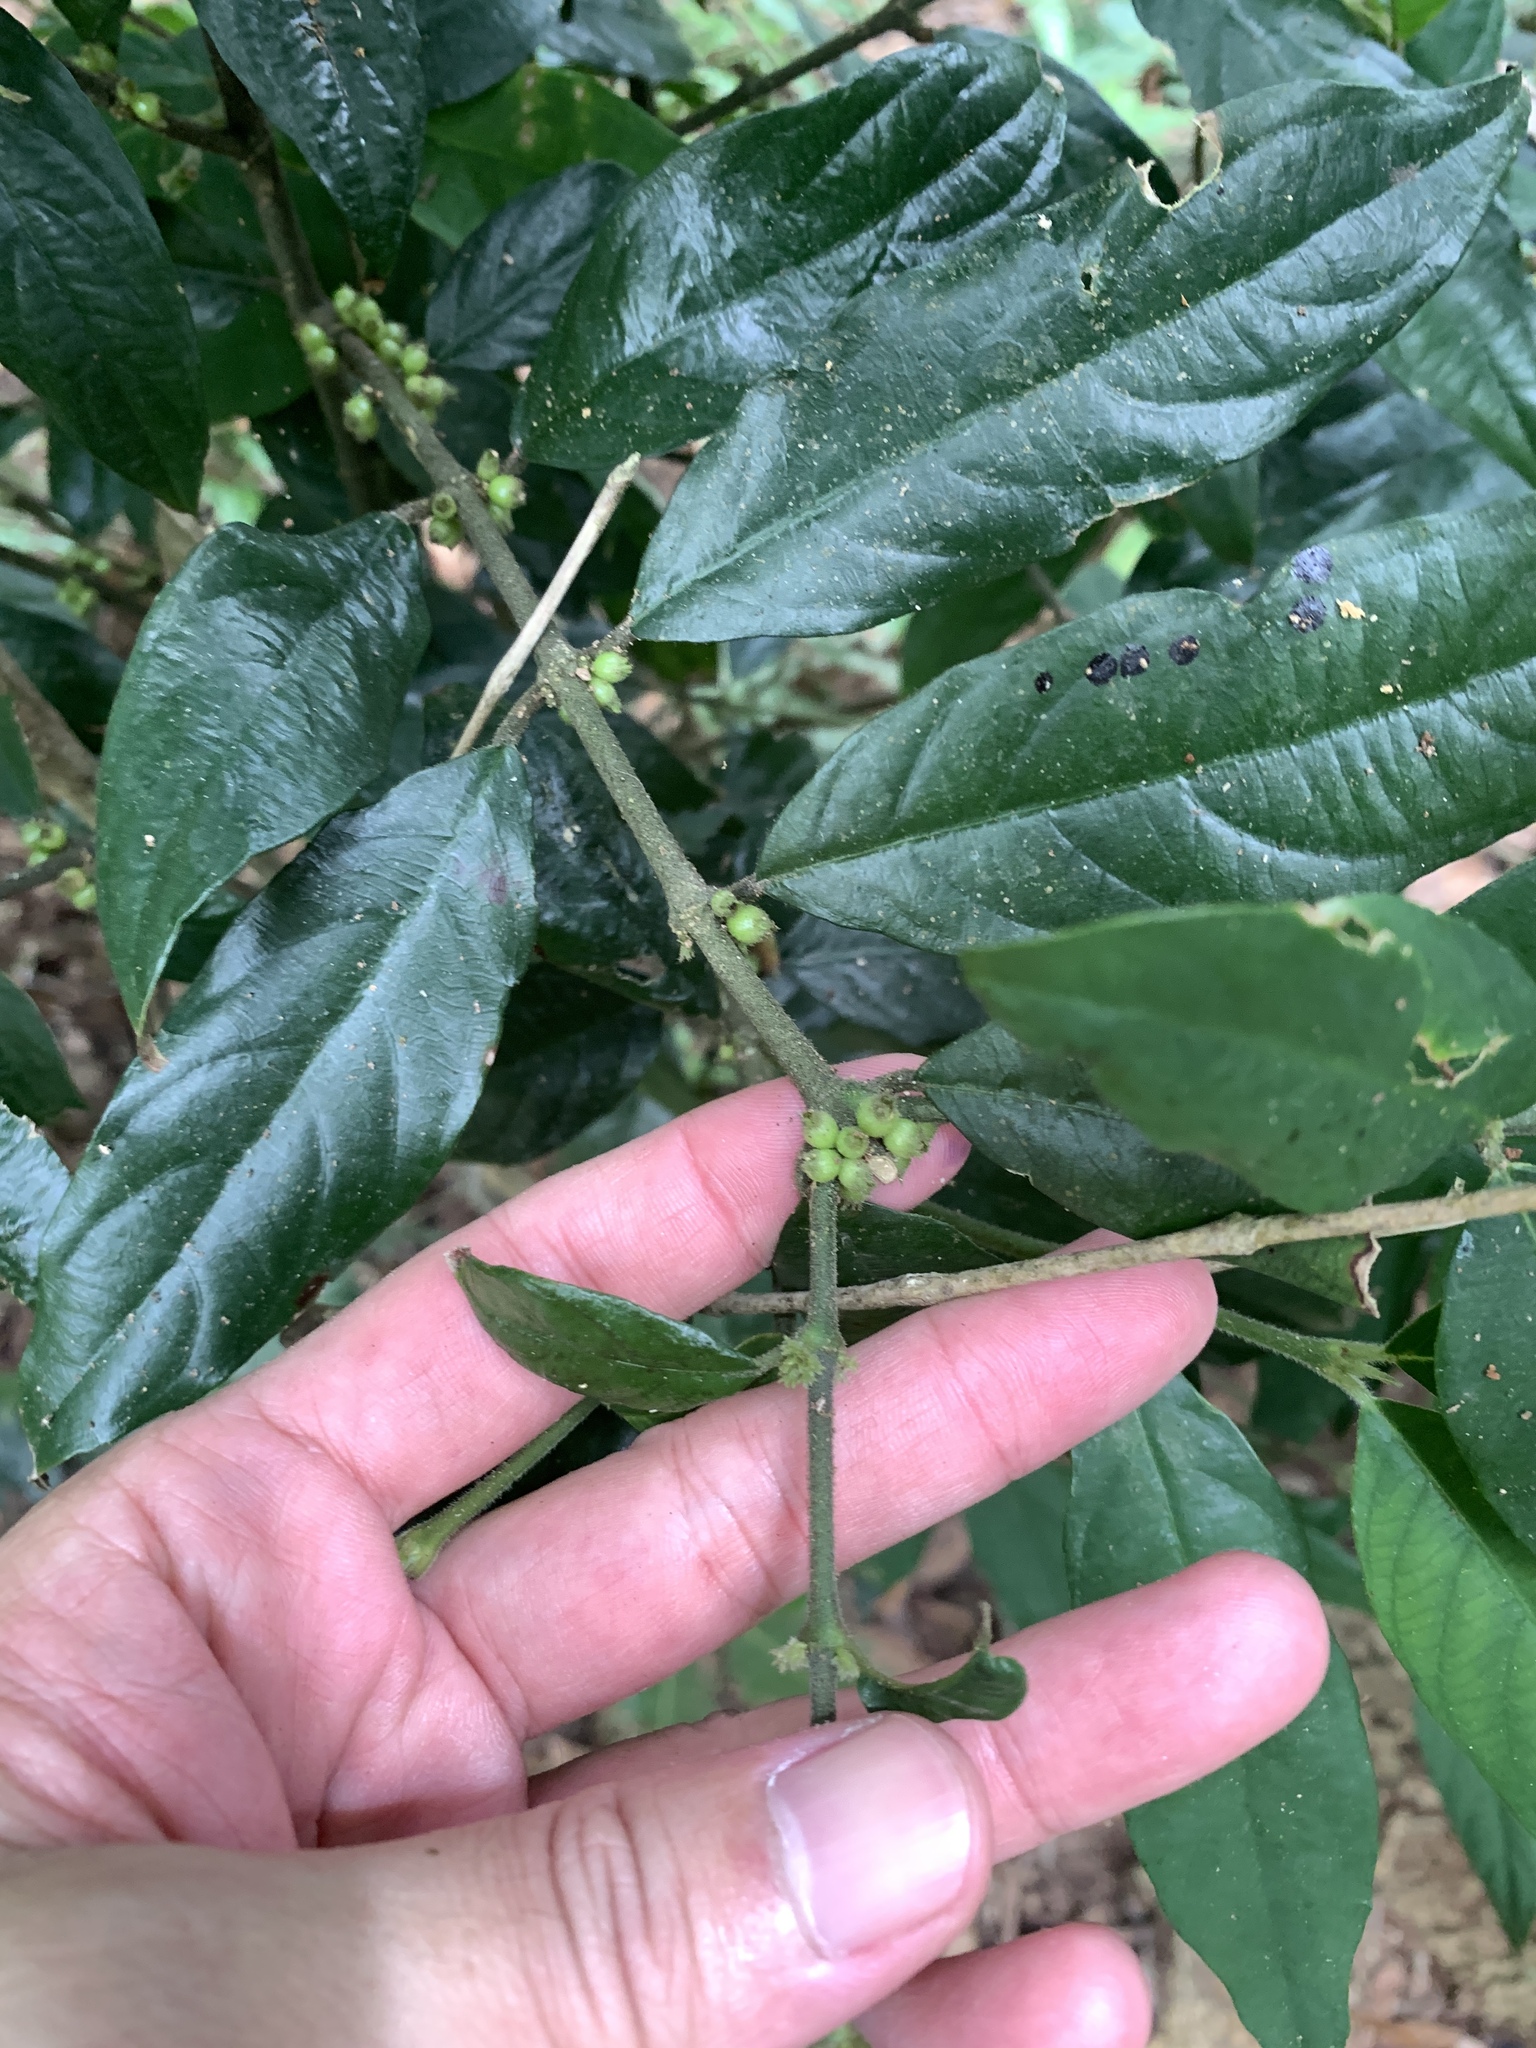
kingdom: Plantae
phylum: Tracheophyta
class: Magnoliopsida
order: Gentianales
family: Rubiaceae
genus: Lasianthus
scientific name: Lasianthus formosensis
